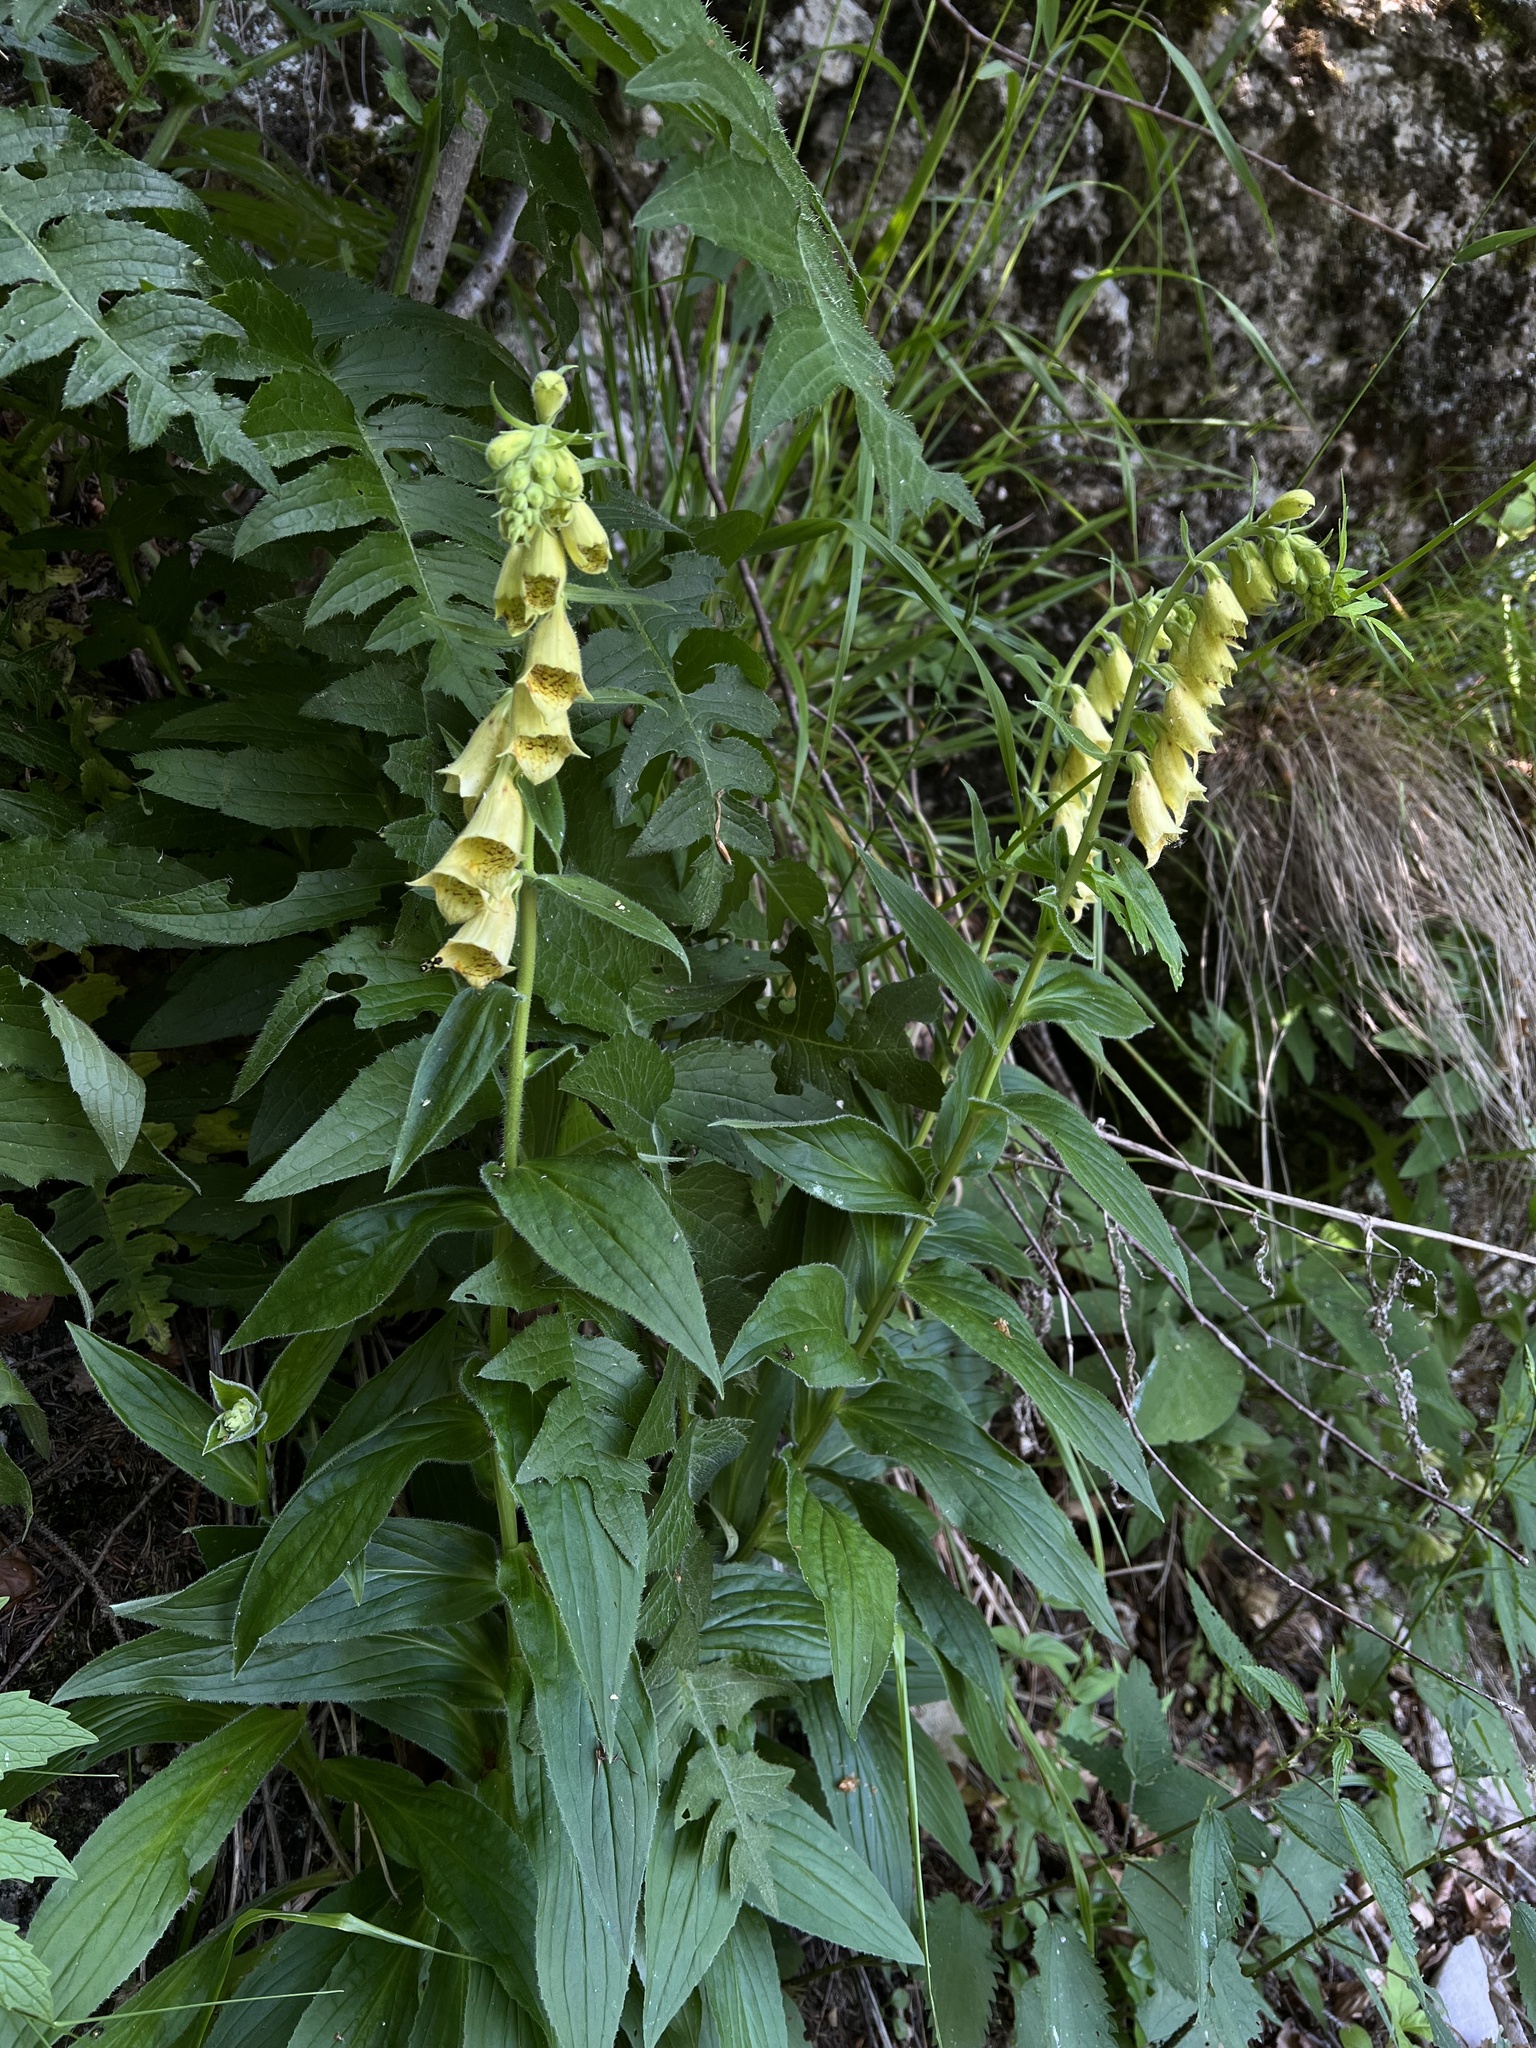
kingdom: Plantae
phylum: Tracheophyta
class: Magnoliopsida
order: Lamiales
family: Plantaginaceae
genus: Digitalis
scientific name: Digitalis grandiflora
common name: Yellow foxglove
